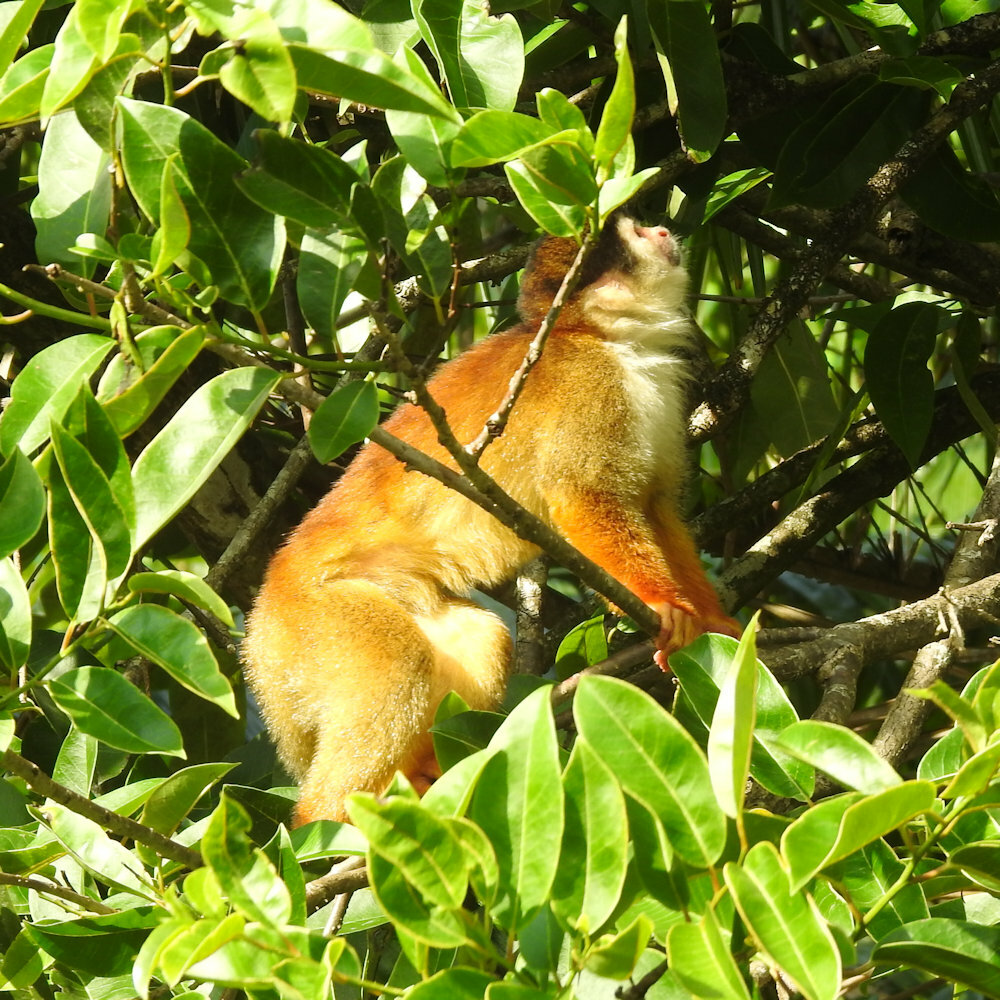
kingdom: Animalia
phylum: Chordata
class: Mammalia
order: Primates
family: Cebidae
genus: Saimiri
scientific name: Saimiri oerstedii
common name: Central american squirrel monkey
